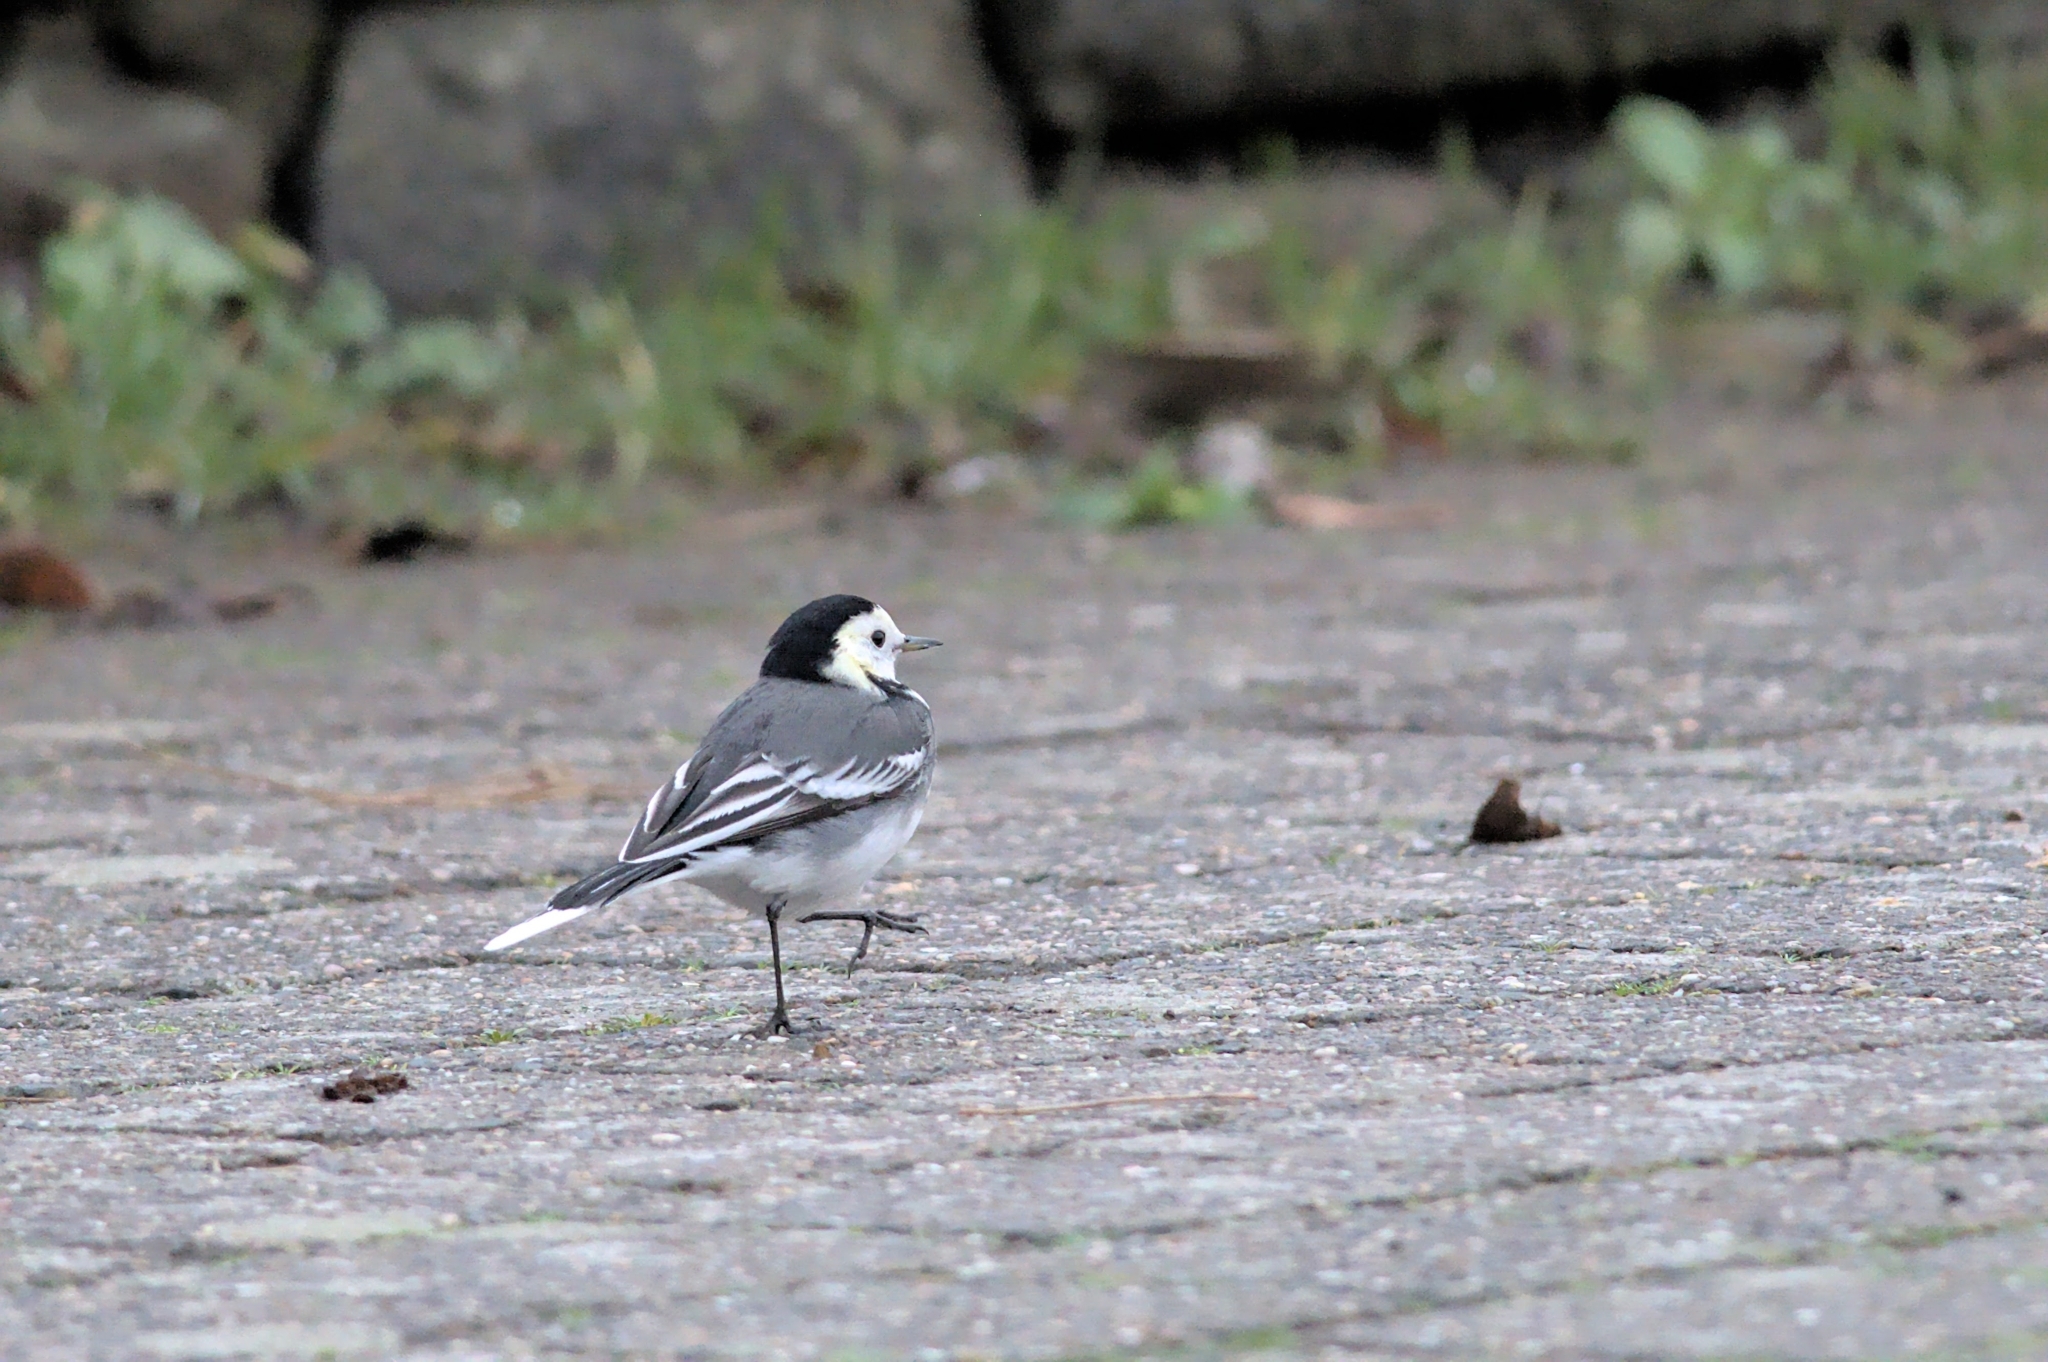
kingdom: Animalia
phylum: Chordata
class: Aves
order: Passeriformes
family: Motacillidae
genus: Motacilla
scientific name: Motacilla alba
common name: White wagtail
